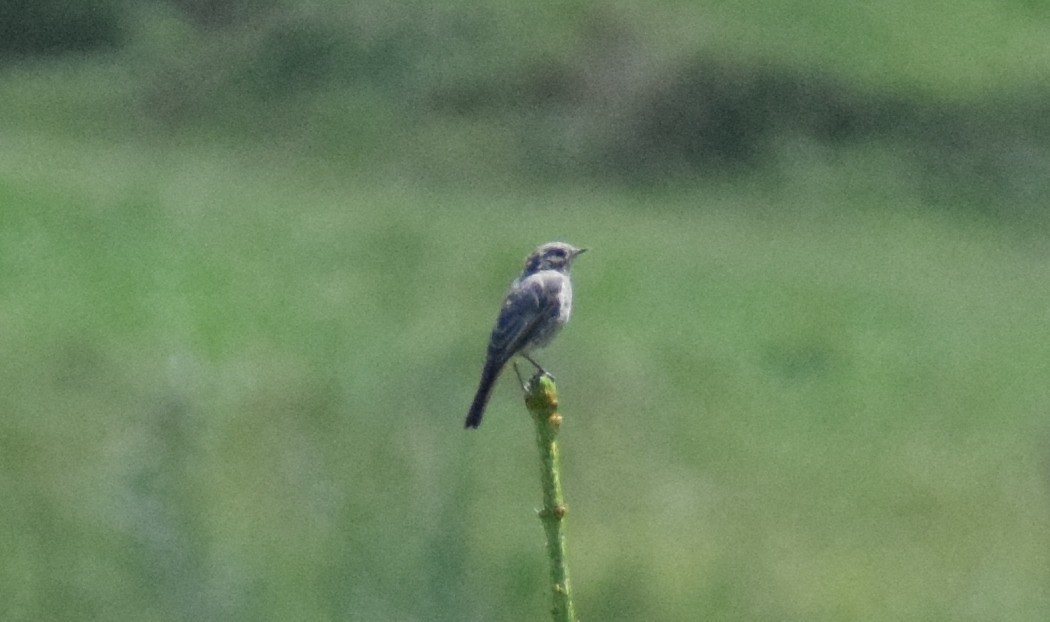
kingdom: Animalia
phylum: Chordata
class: Aves
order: Passeriformes
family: Muscicapidae
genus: Phoenicurus
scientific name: Phoenicurus ochruros
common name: Black redstart
